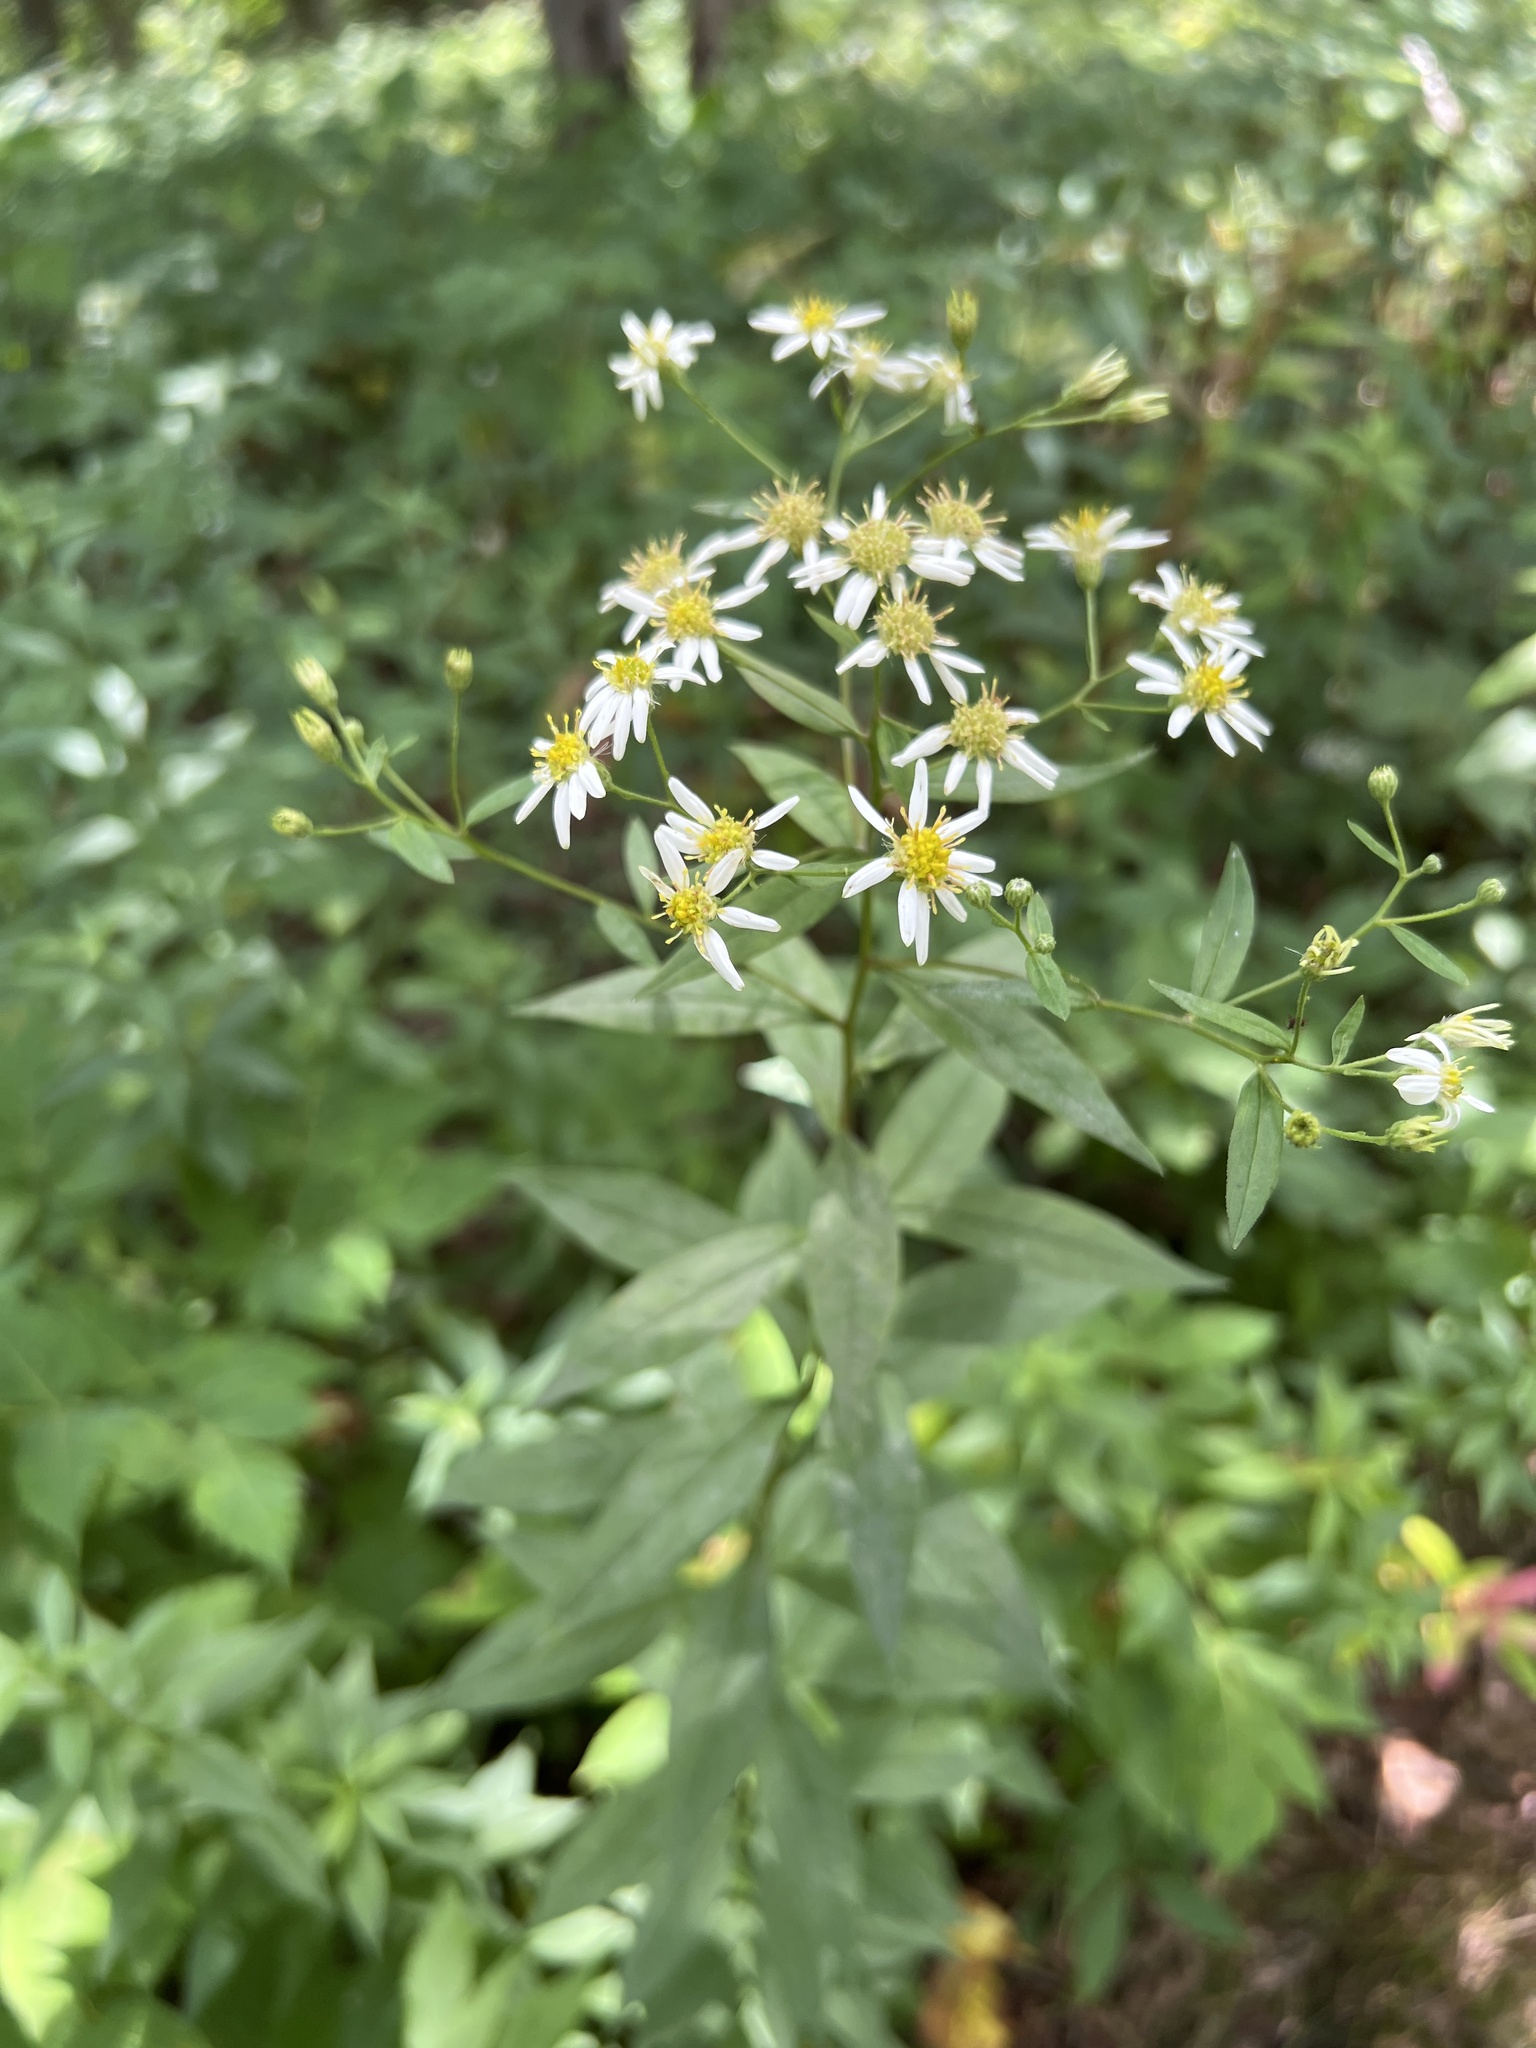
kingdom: Plantae
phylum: Tracheophyta
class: Magnoliopsida
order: Asterales
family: Asteraceae
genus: Doellingeria
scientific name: Doellingeria umbellata
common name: Flat-top white aster
